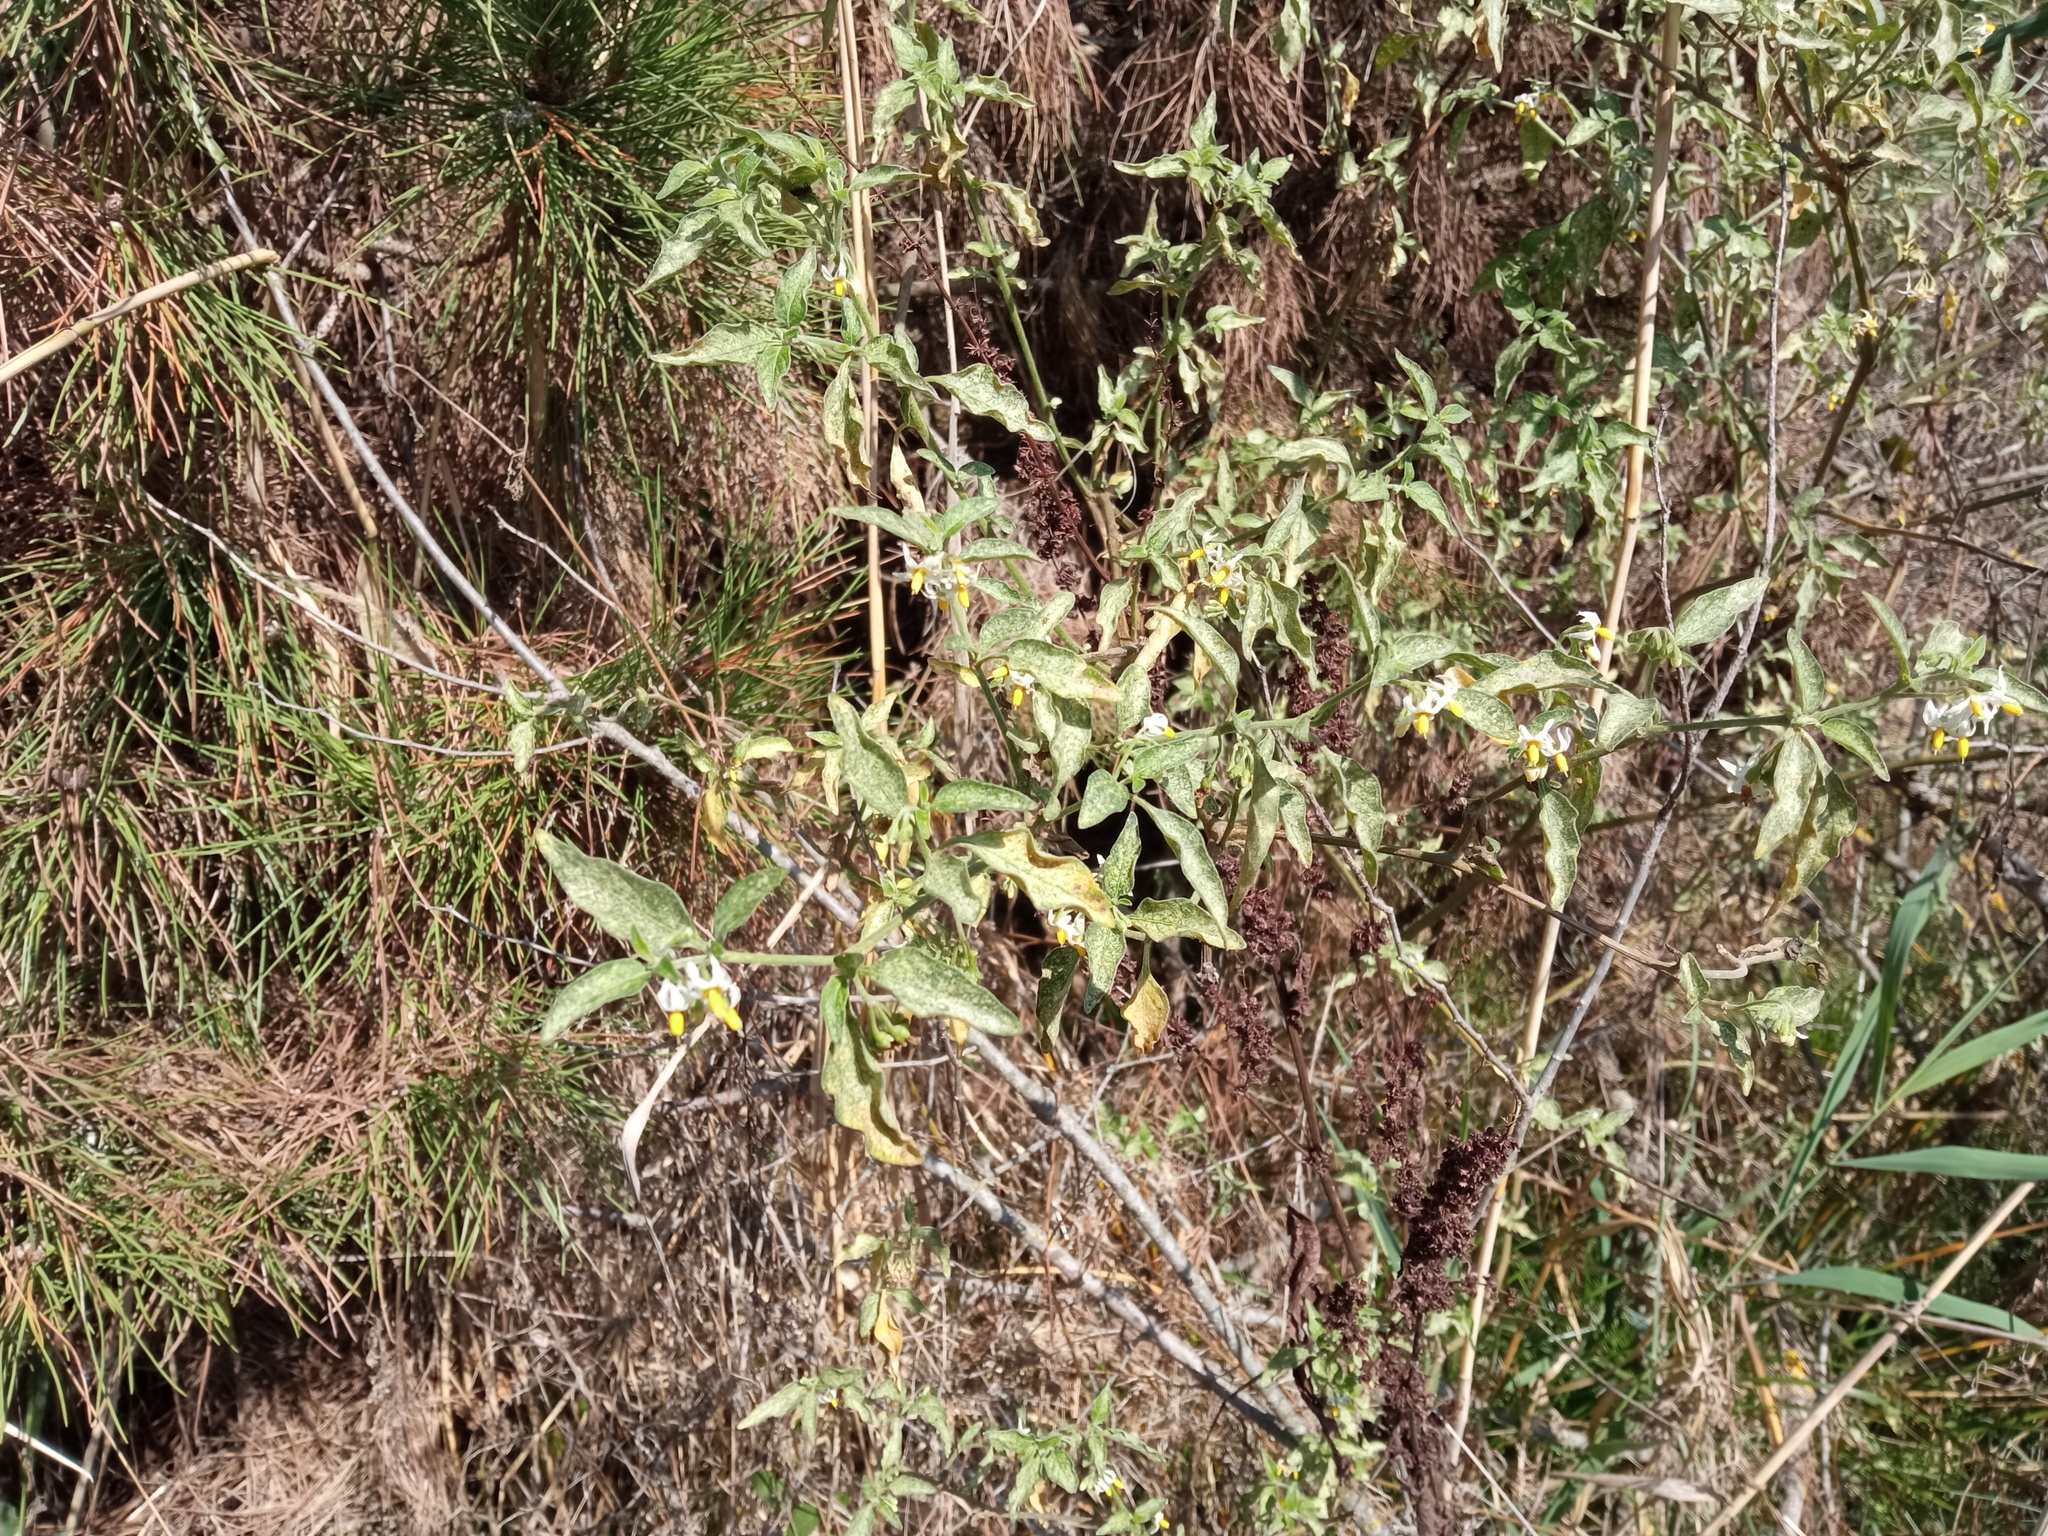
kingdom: Plantae
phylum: Tracheophyta
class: Magnoliopsida
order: Solanales
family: Solanaceae
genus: Solanum
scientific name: Solanum chenopodioides
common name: Tall nightshade
